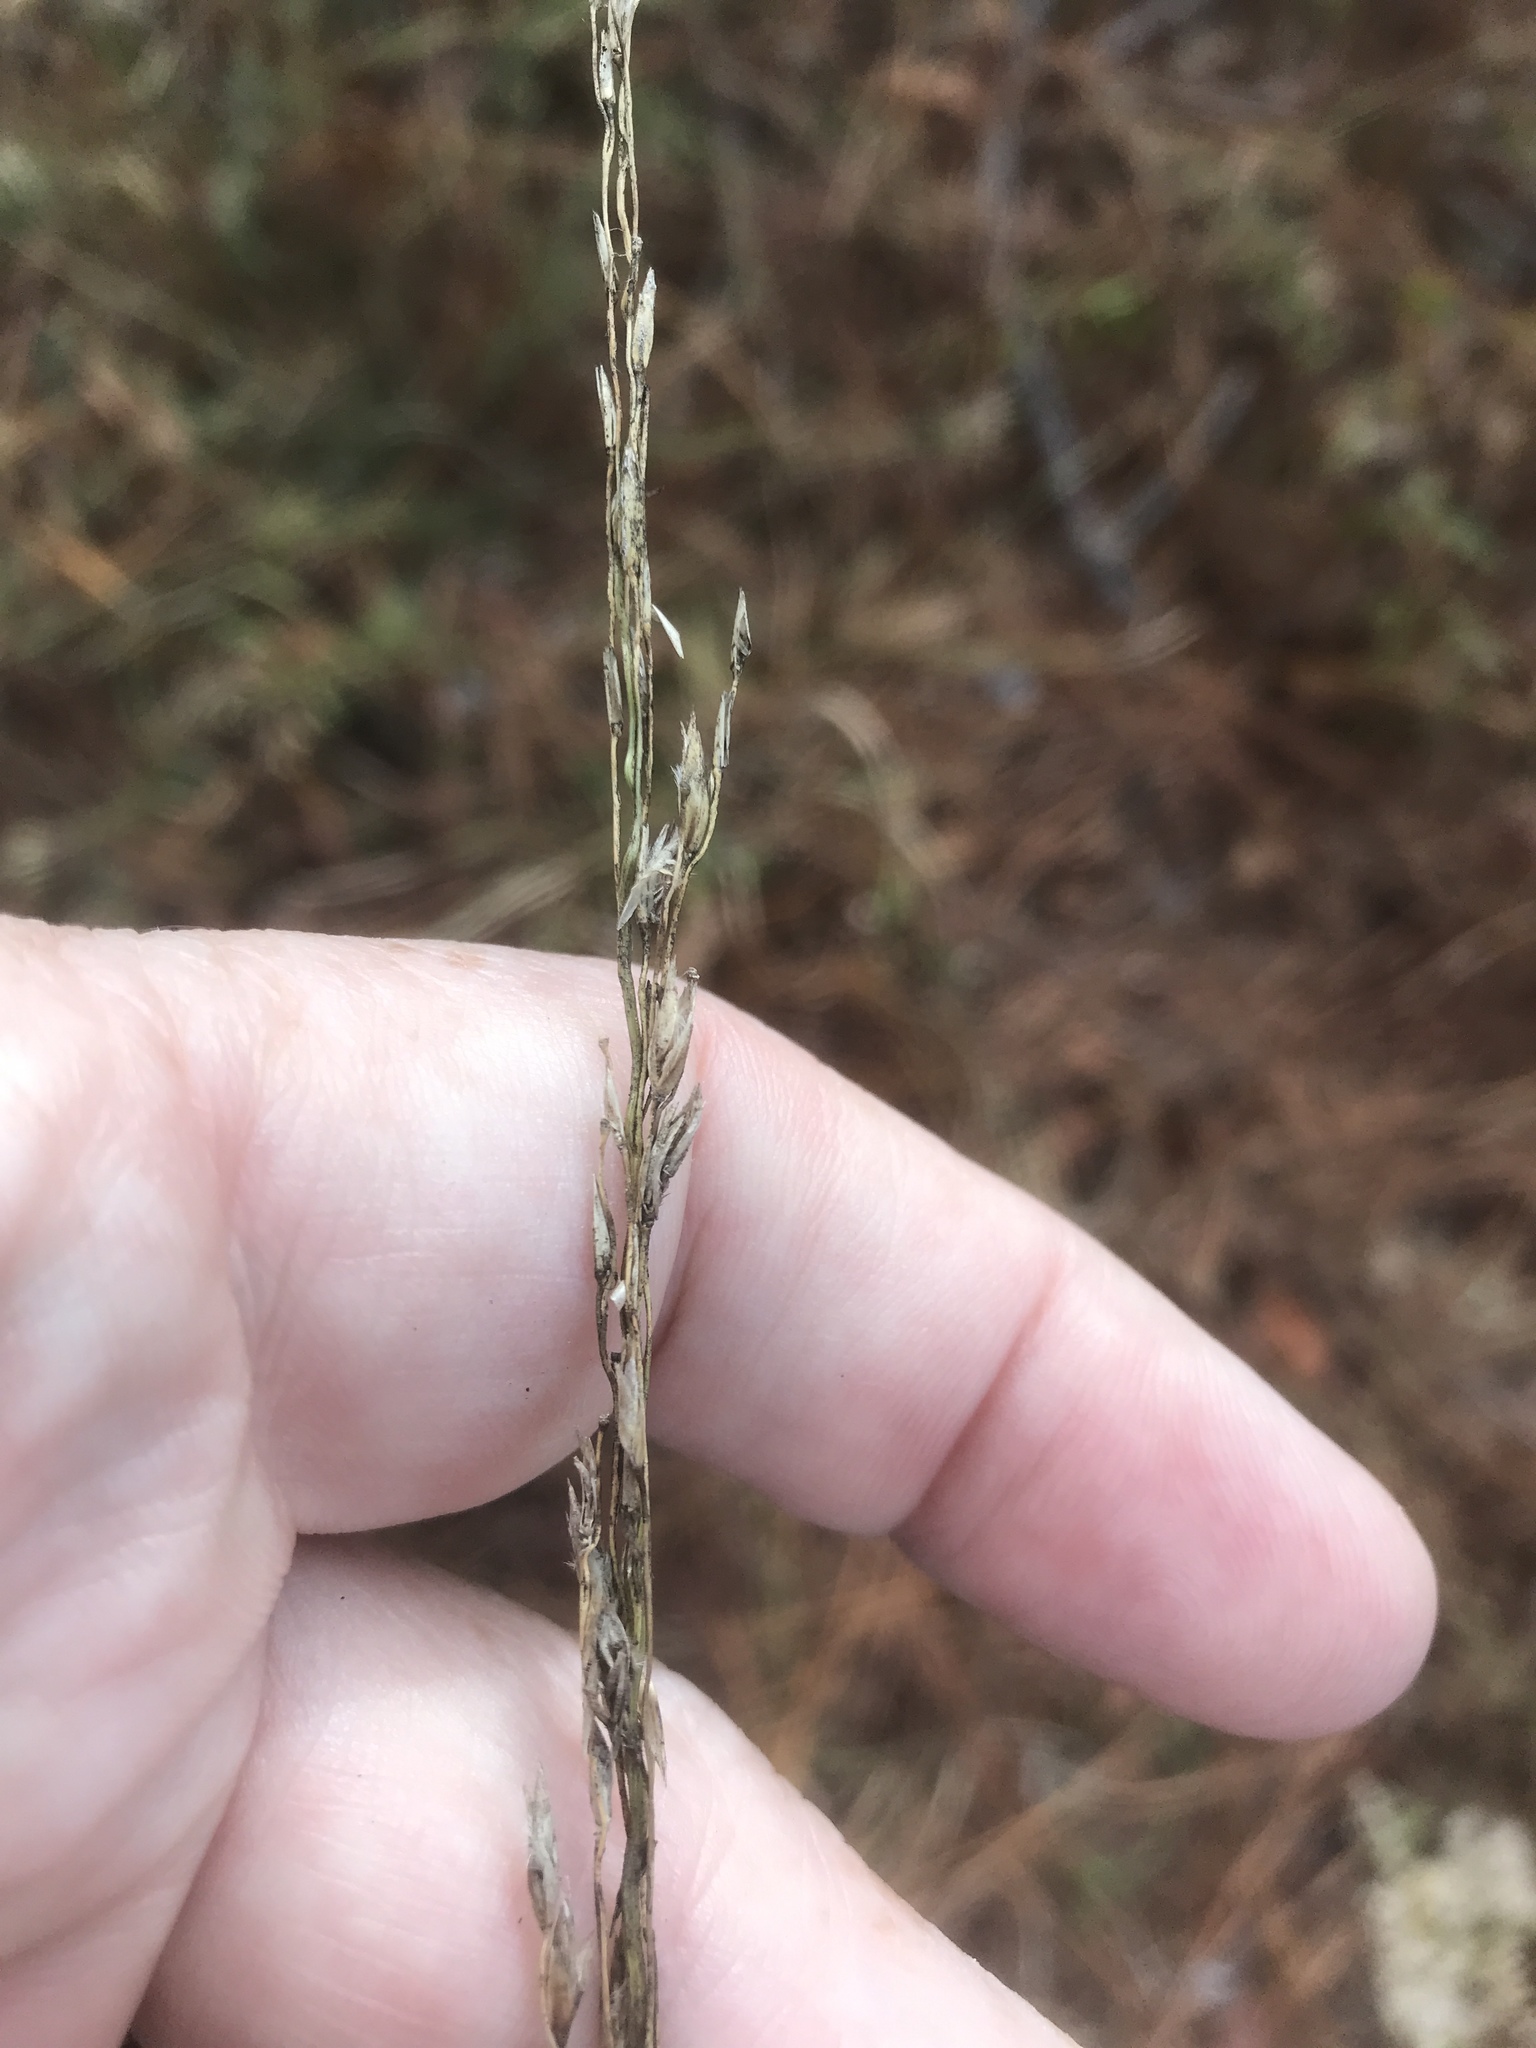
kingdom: Plantae
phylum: Tracheophyta
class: Liliopsida
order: Poales
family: Poaceae
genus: Tridens
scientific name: Tridens carolinianus
